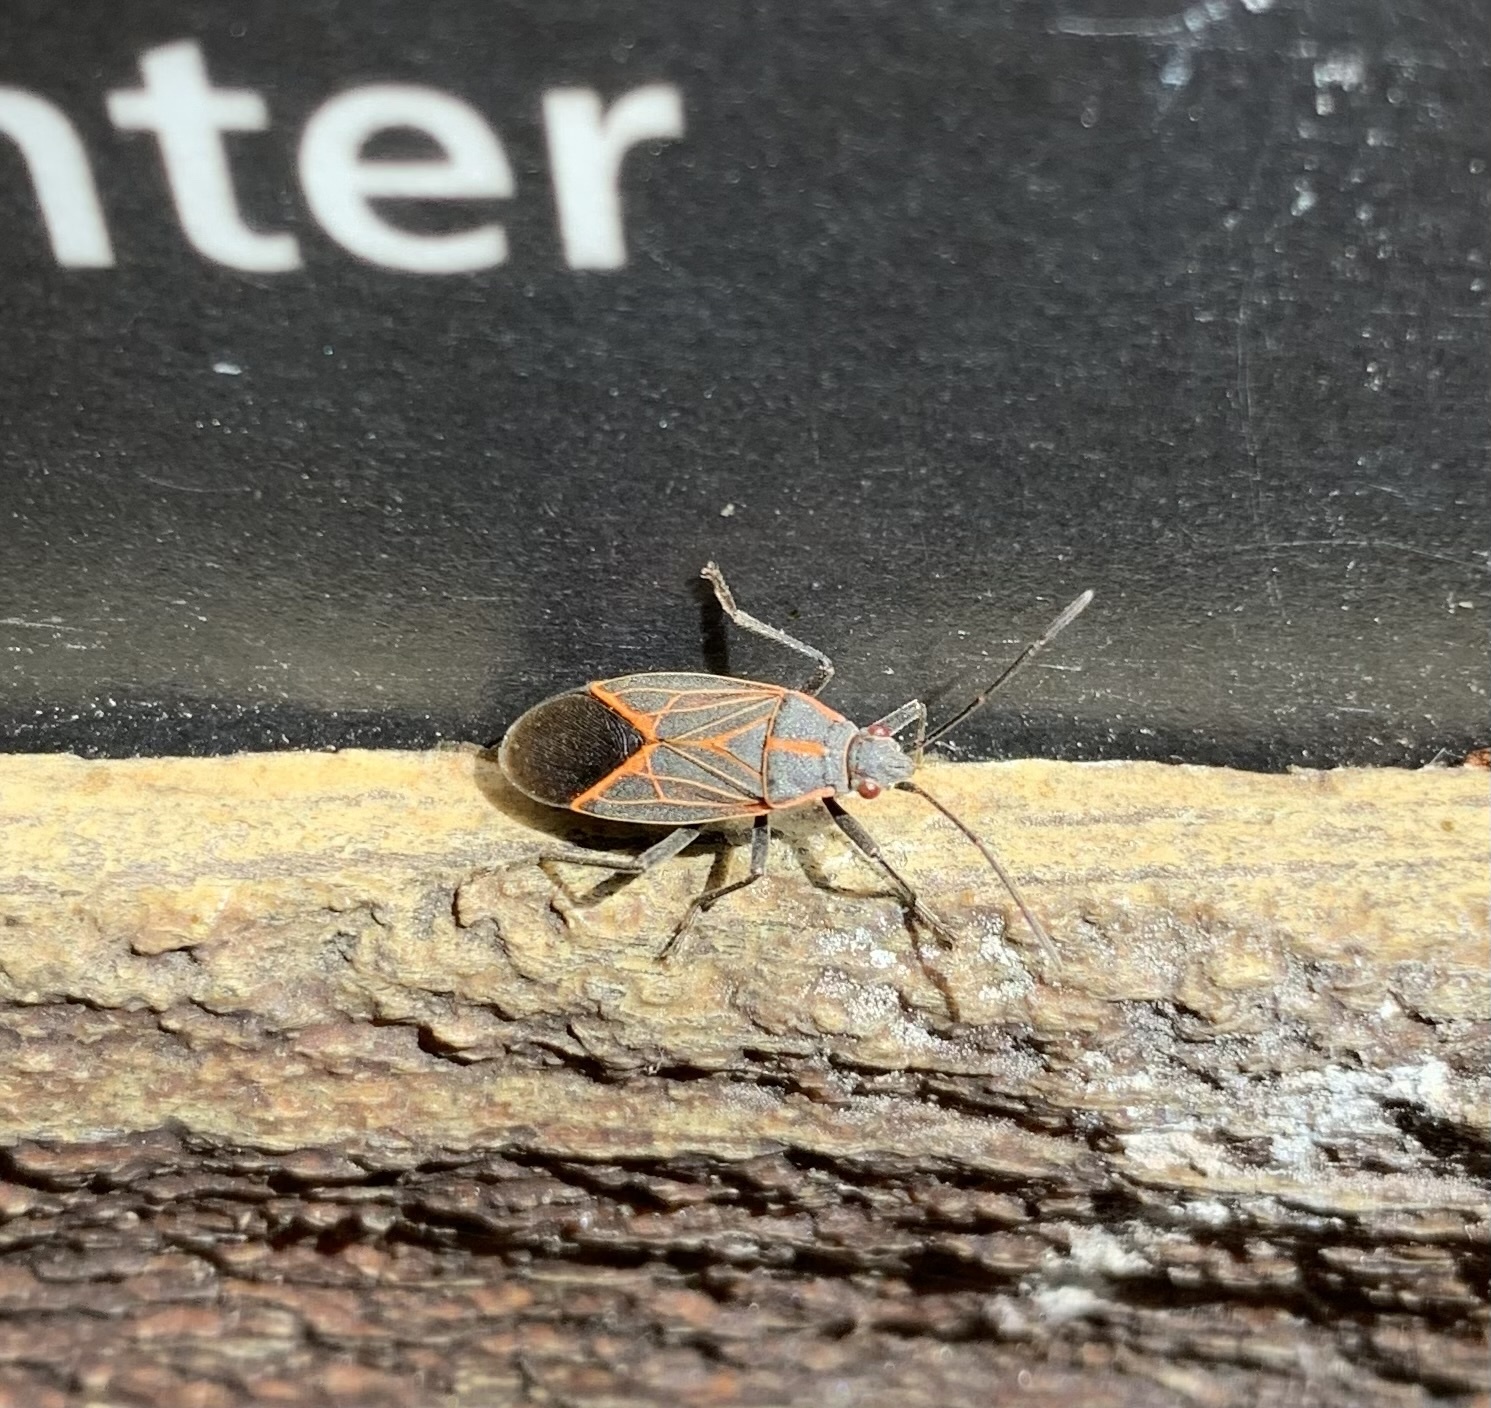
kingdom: Animalia
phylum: Arthropoda
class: Insecta
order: Hemiptera
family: Rhopalidae
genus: Boisea
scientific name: Boisea rubrolineata
